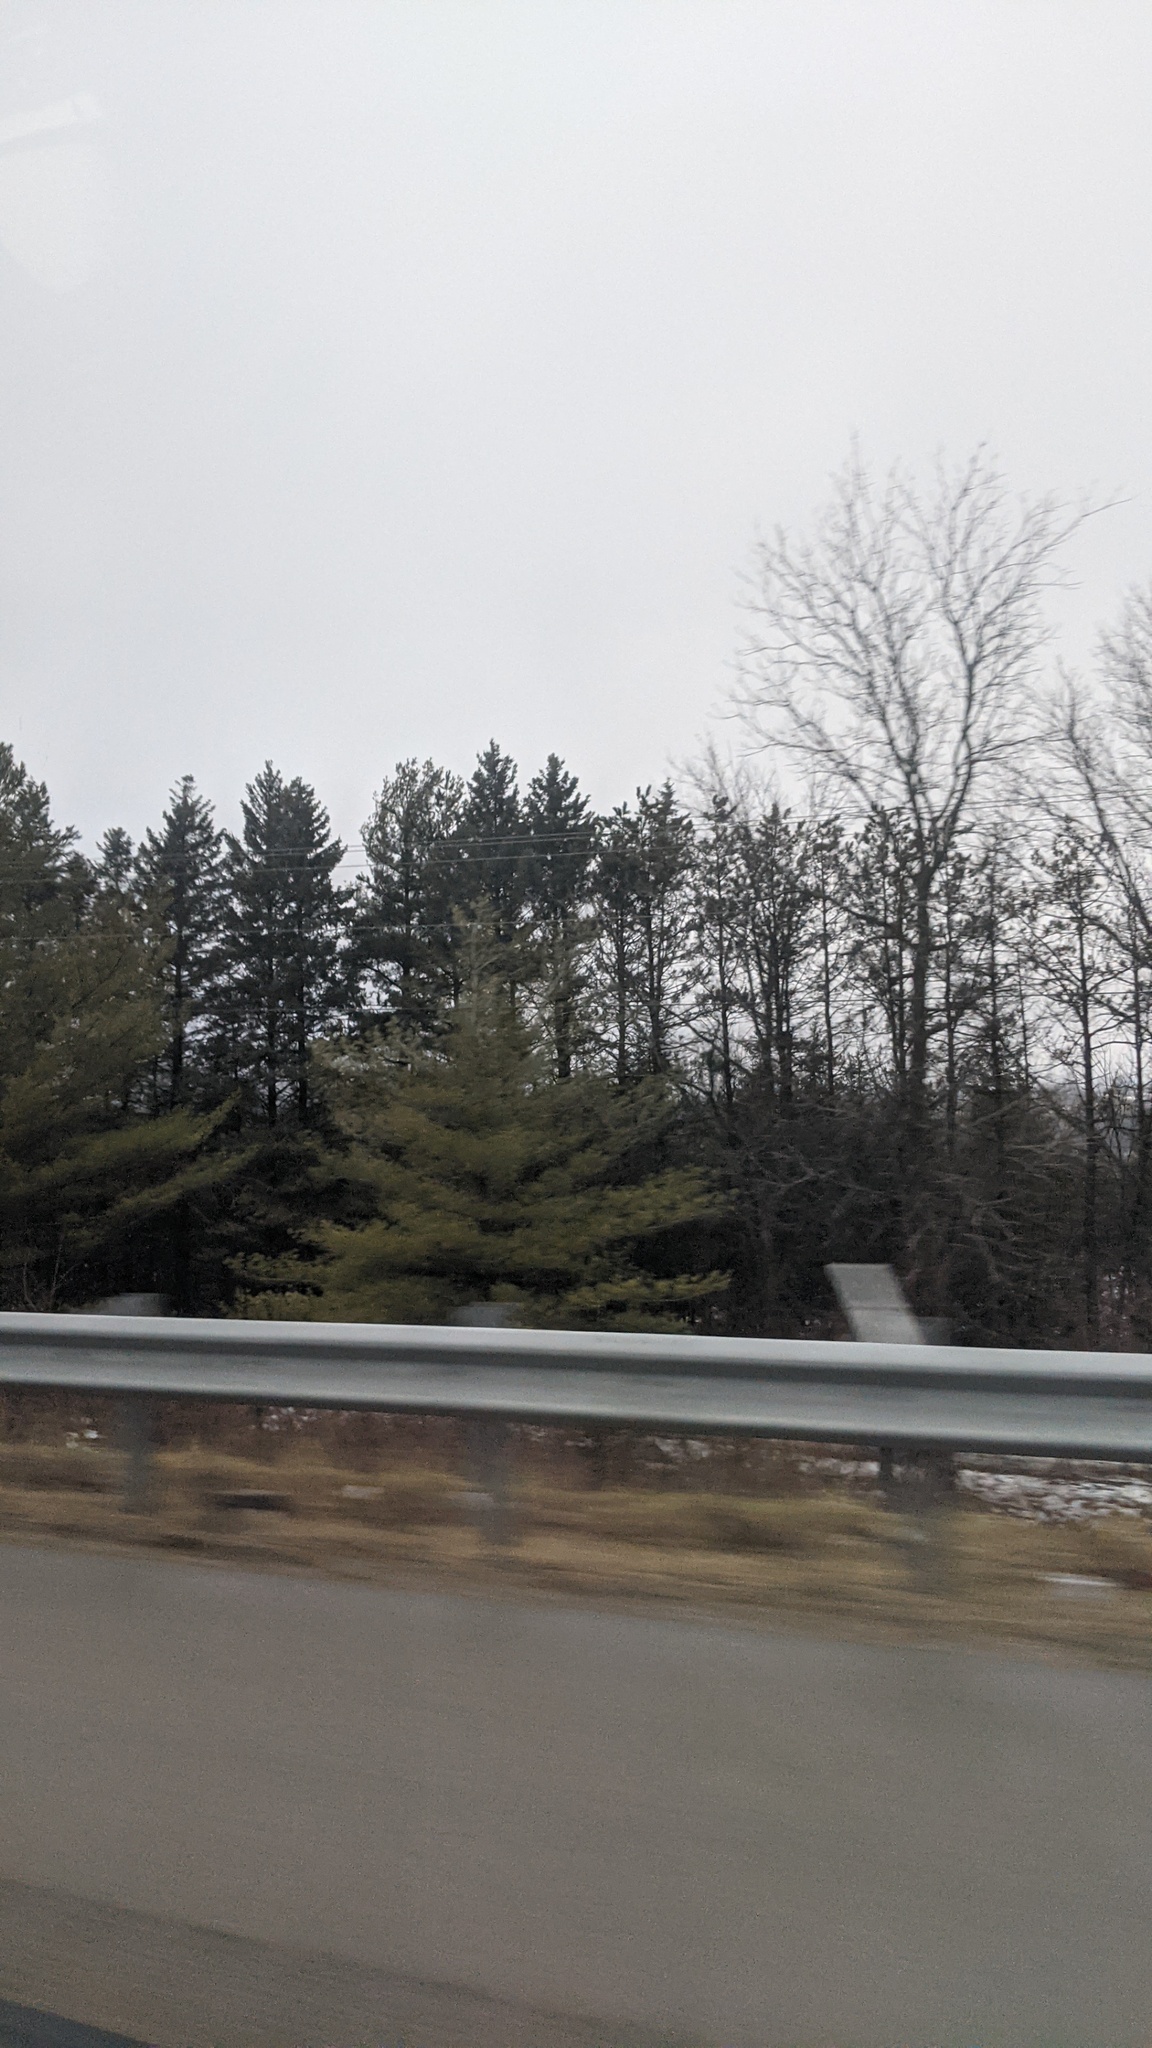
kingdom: Plantae
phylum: Tracheophyta
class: Pinopsida
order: Pinales
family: Pinaceae
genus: Pinus
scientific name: Pinus strobus
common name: Weymouth pine
